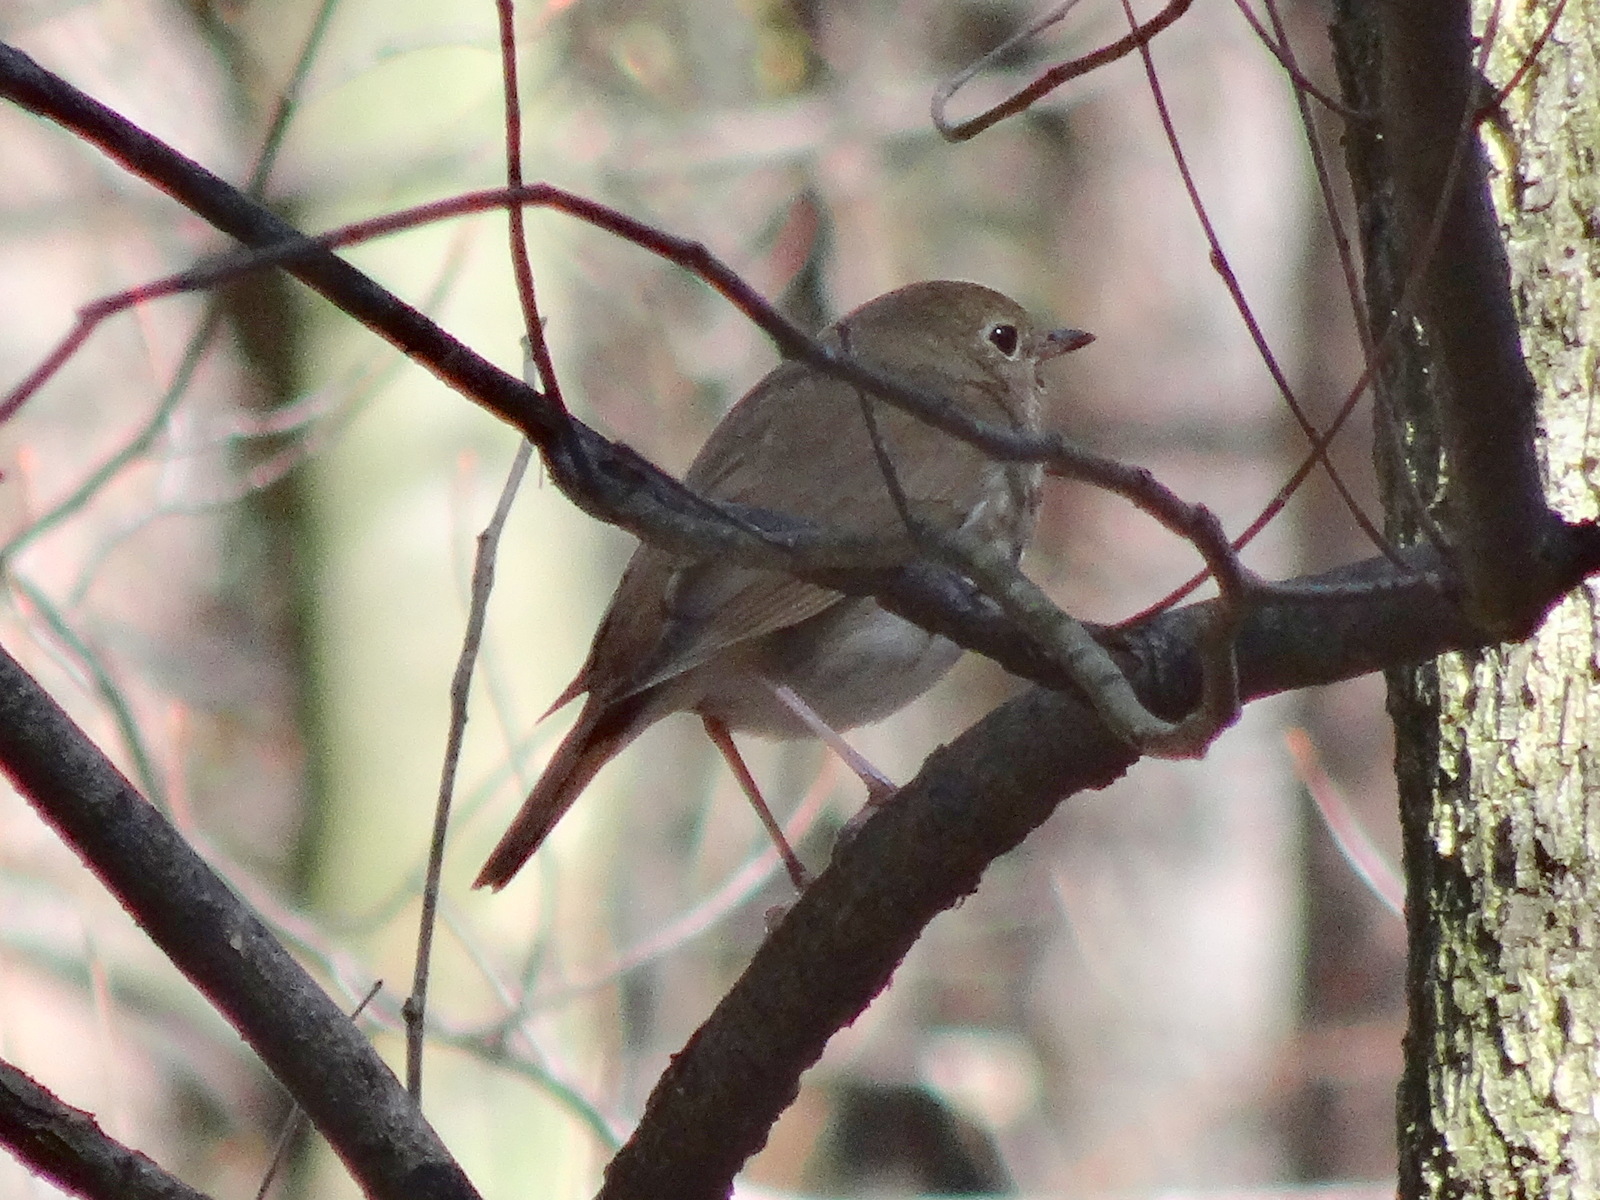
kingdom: Animalia
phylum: Chordata
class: Aves
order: Passeriformes
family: Turdidae
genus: Catharus
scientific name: Catharus guttatus
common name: Hermit thrush
